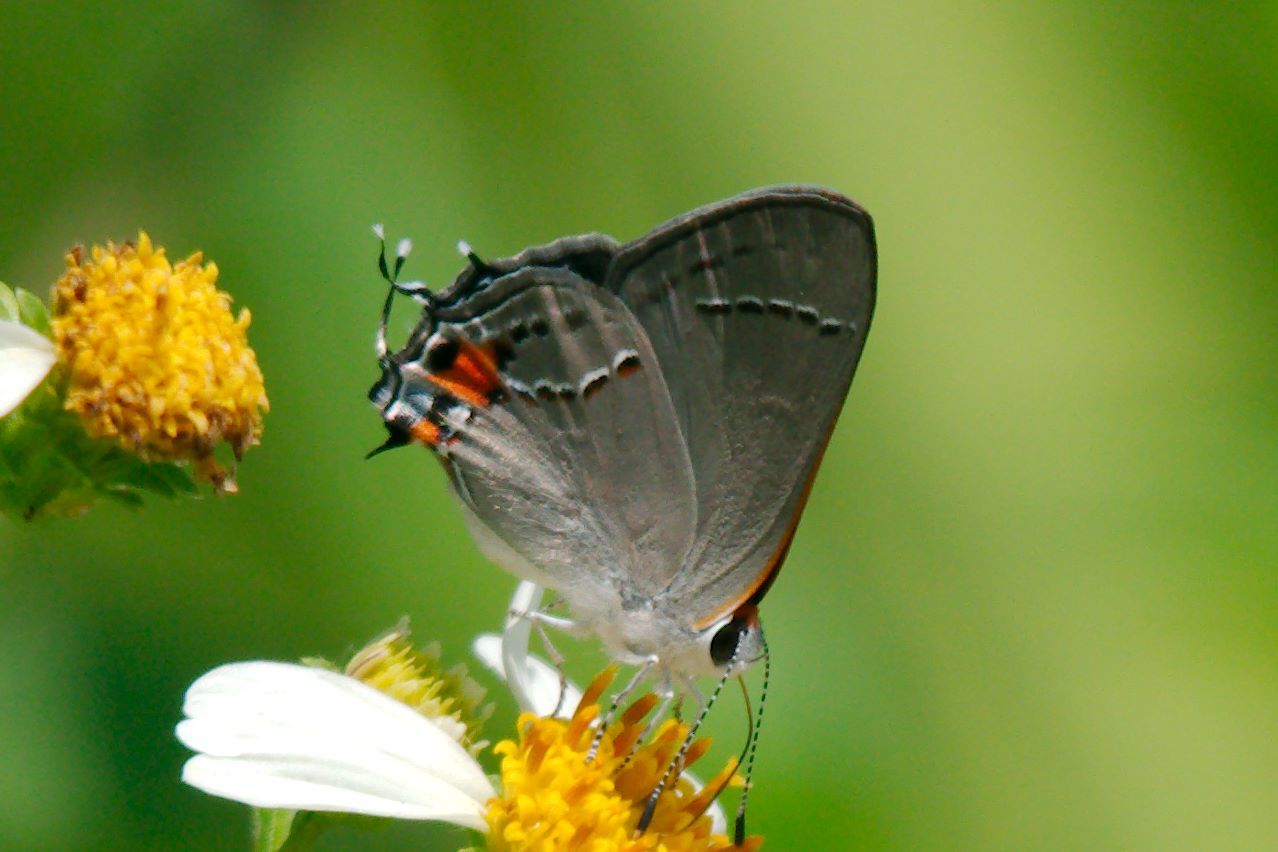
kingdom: Animalia
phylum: Arthropoda
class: Insecta
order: Lepidoptera
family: Lycaenidae
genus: Strymon
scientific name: Strymon melinus
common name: Gray hairstreak
